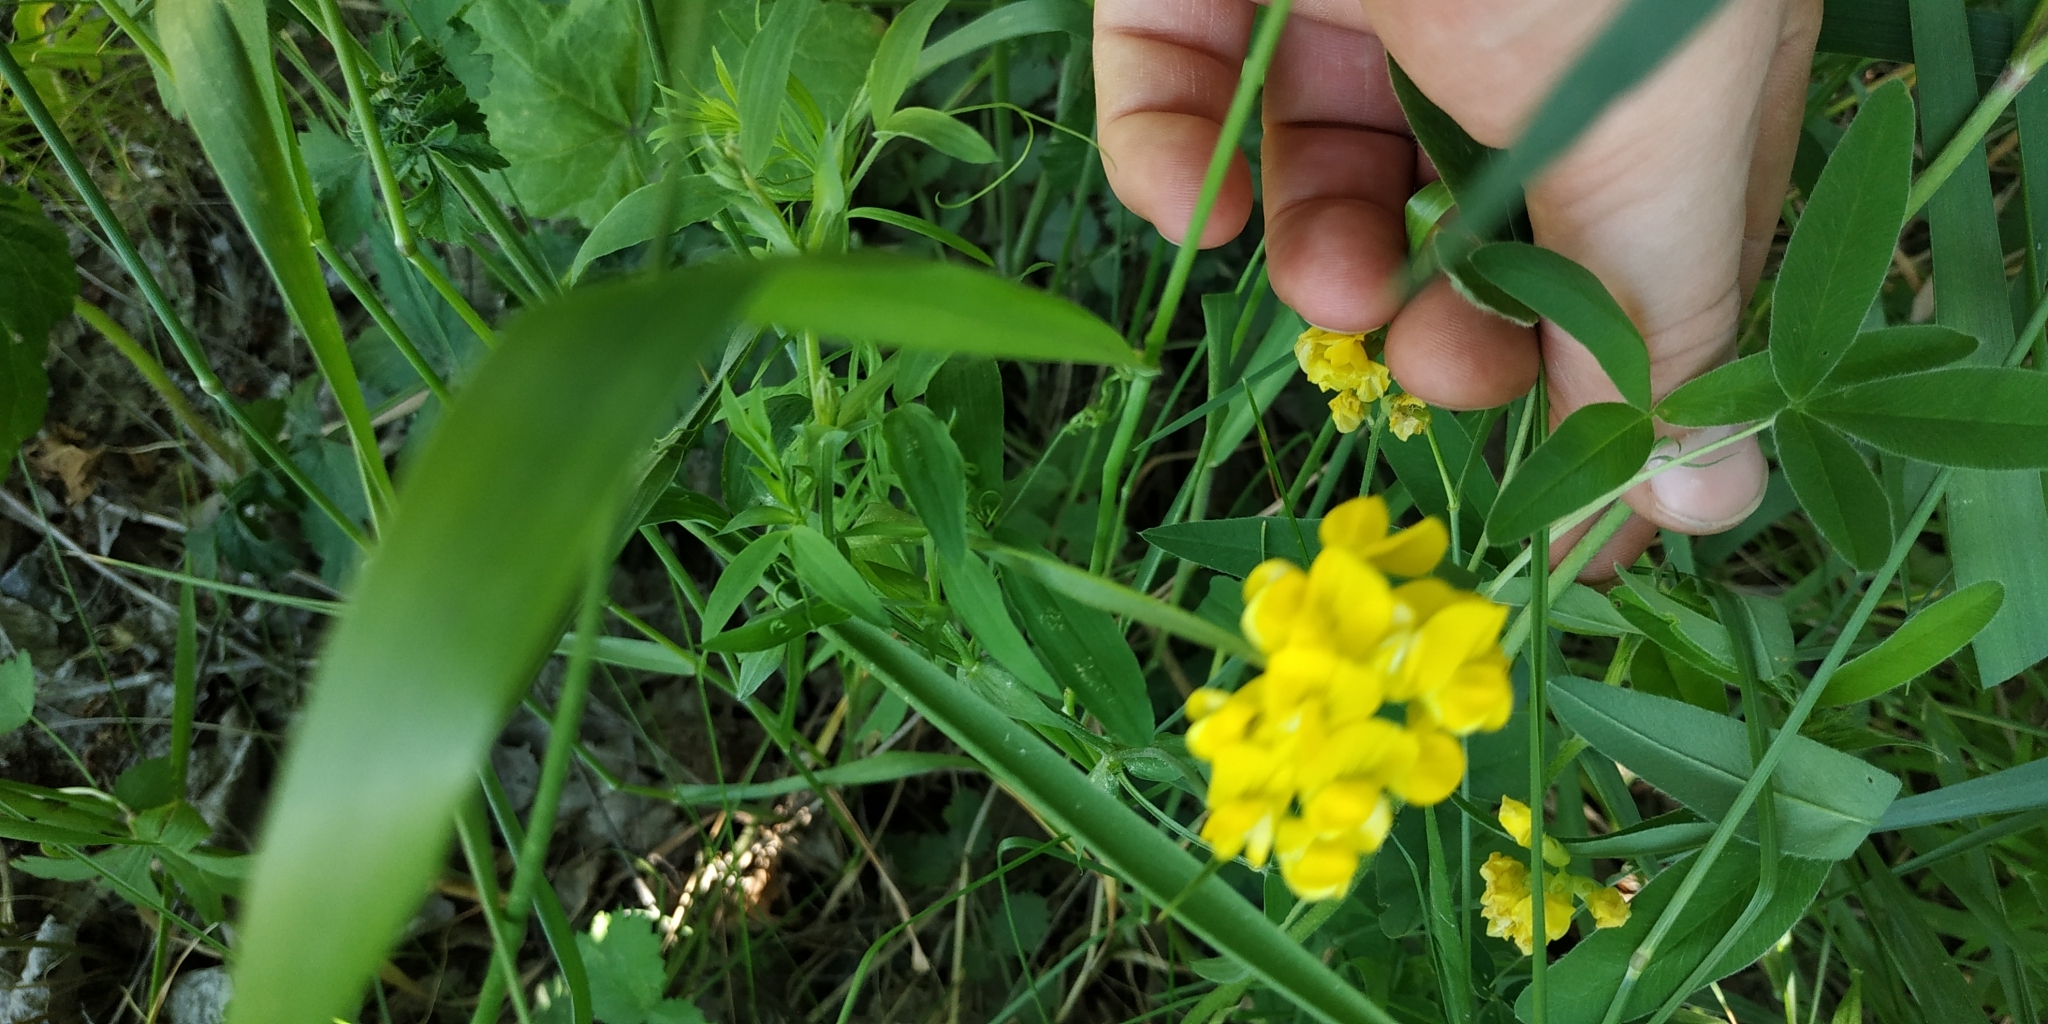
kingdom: Plantae
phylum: Tracheophyta
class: Magnoliopsida
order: Fabales
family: Fabaceae
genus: Lathyrus
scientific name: Lathyrus pratensis
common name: Meadow vetchling
